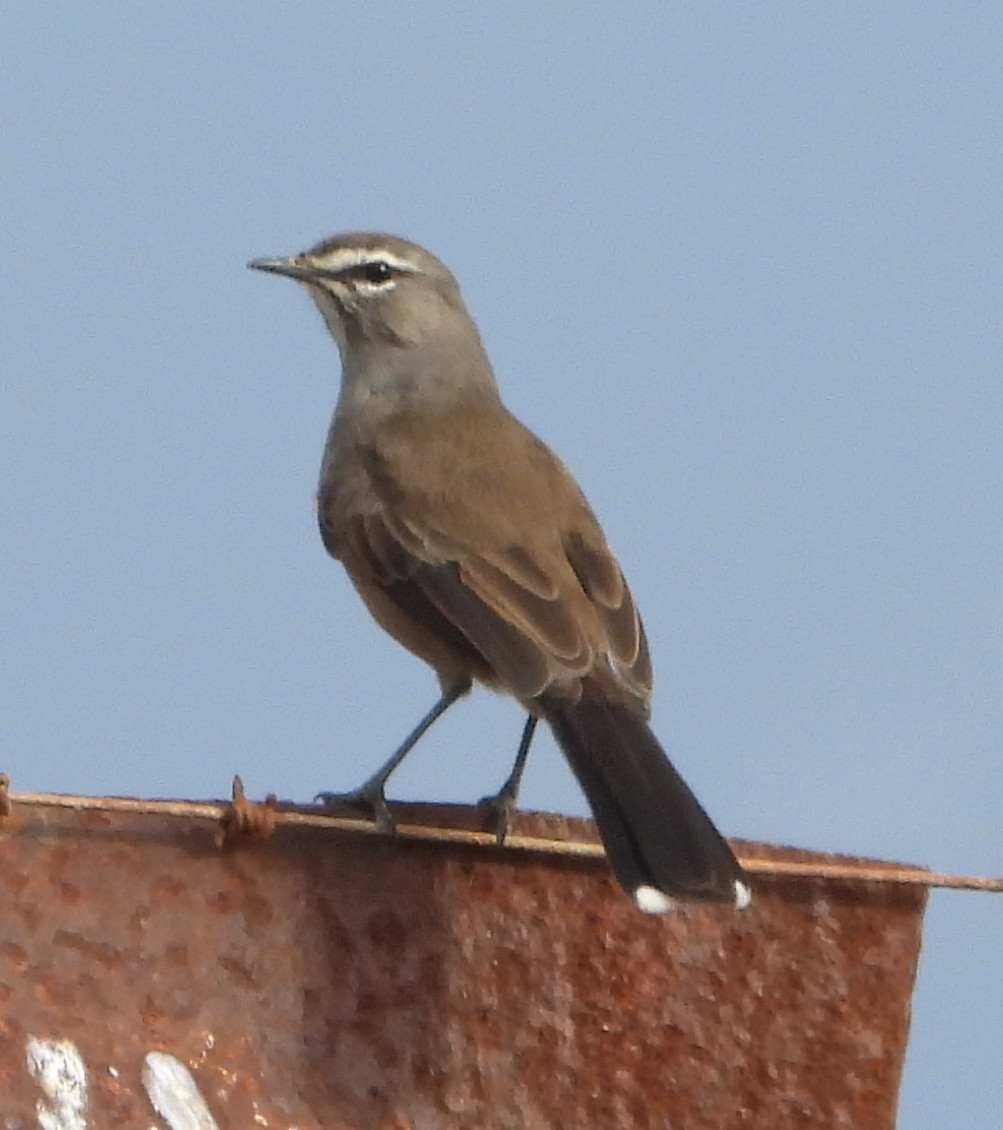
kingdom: Animalia
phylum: Chordata
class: Aves
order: Passeriformes
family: Muscicapidae
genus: Erythropygia
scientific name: Erythropygia coryphoeus
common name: Karoo scrub robin
